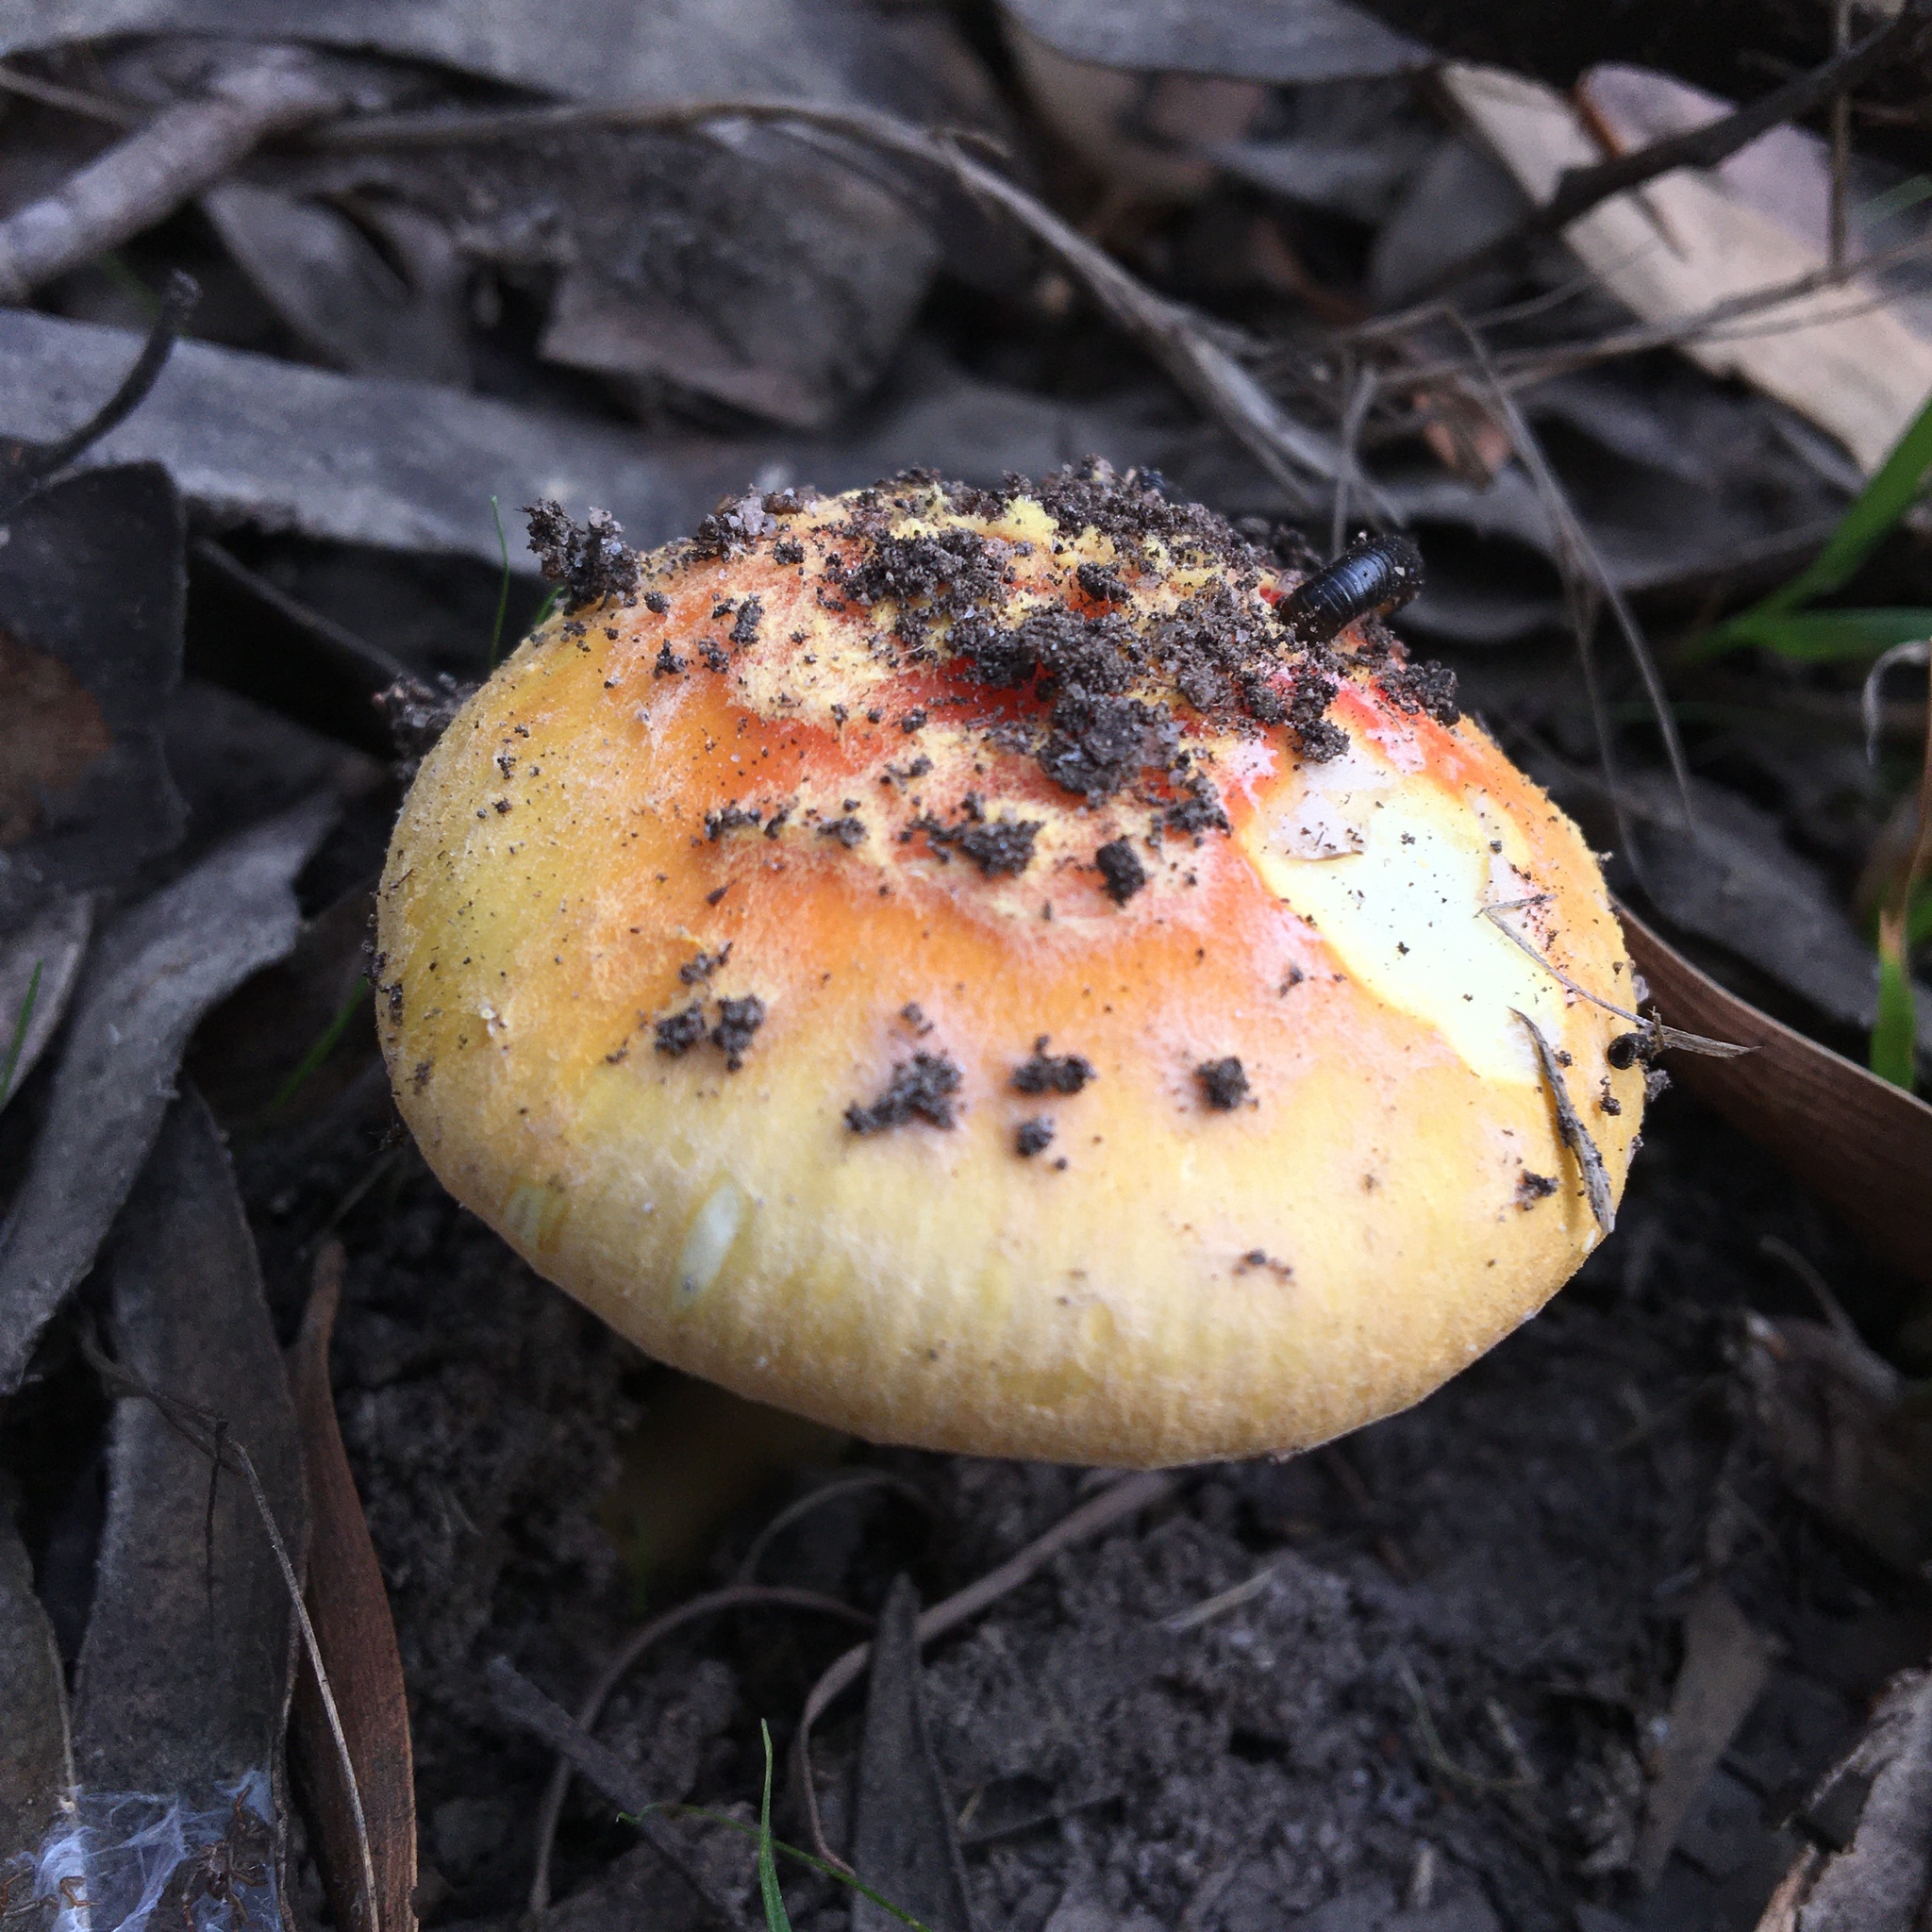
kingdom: Fungi
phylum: Basidiomycota
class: Agaricomycetes
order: Agaricales
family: Amanitaceae
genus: Amanita
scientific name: Amanita xanthocephala
